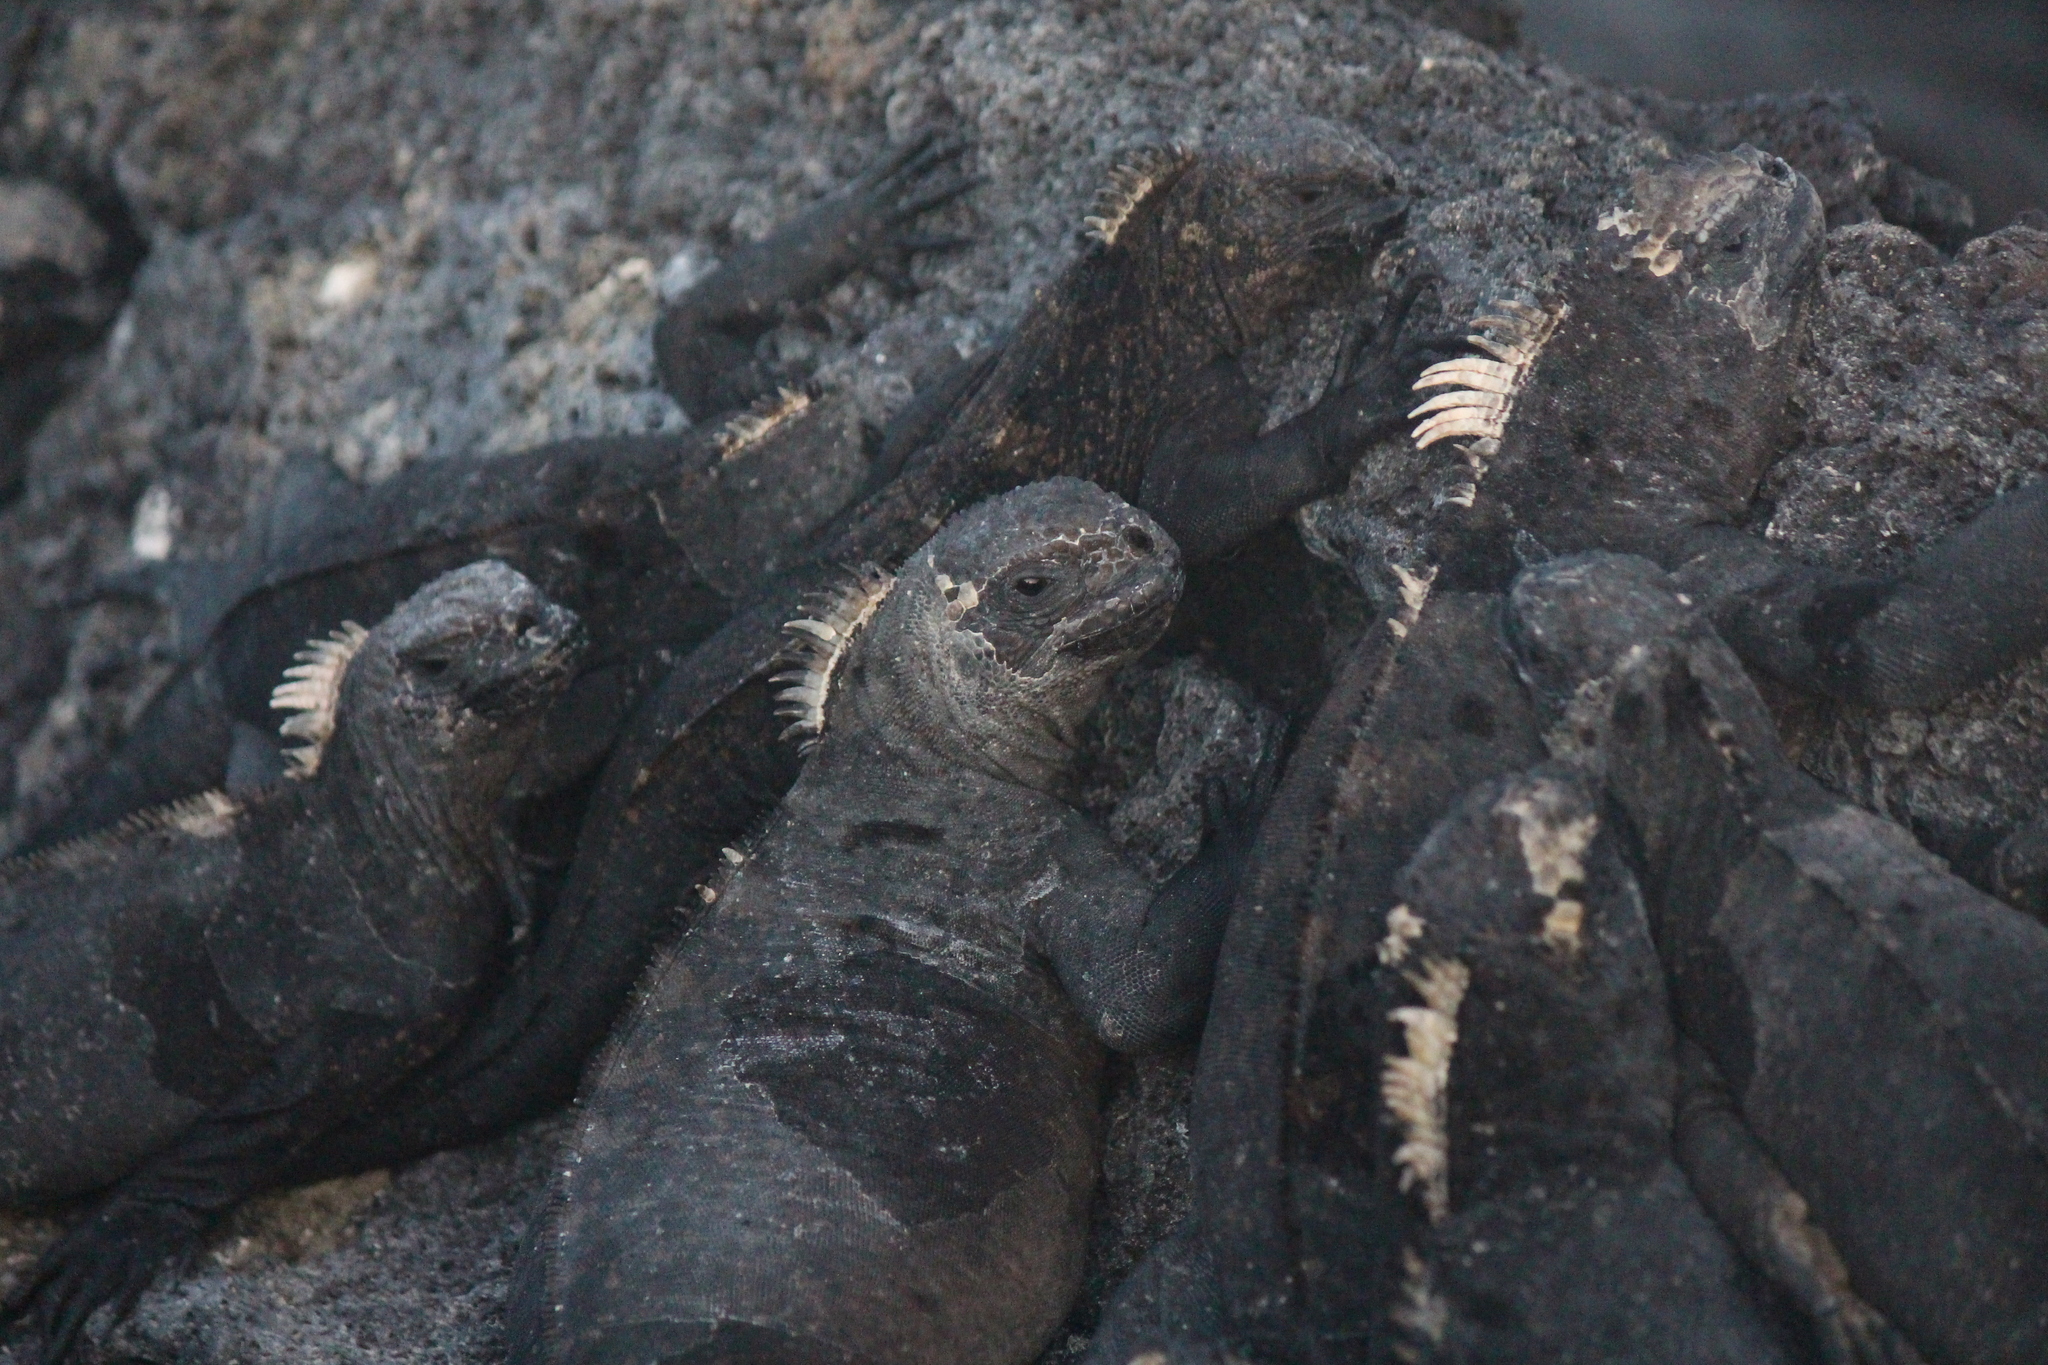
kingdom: Animalia
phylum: Chordata
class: Squamata
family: Iguanidae
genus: Amblyrhynchus
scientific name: Amblyrhynchus cristatus
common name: Marine iguana
